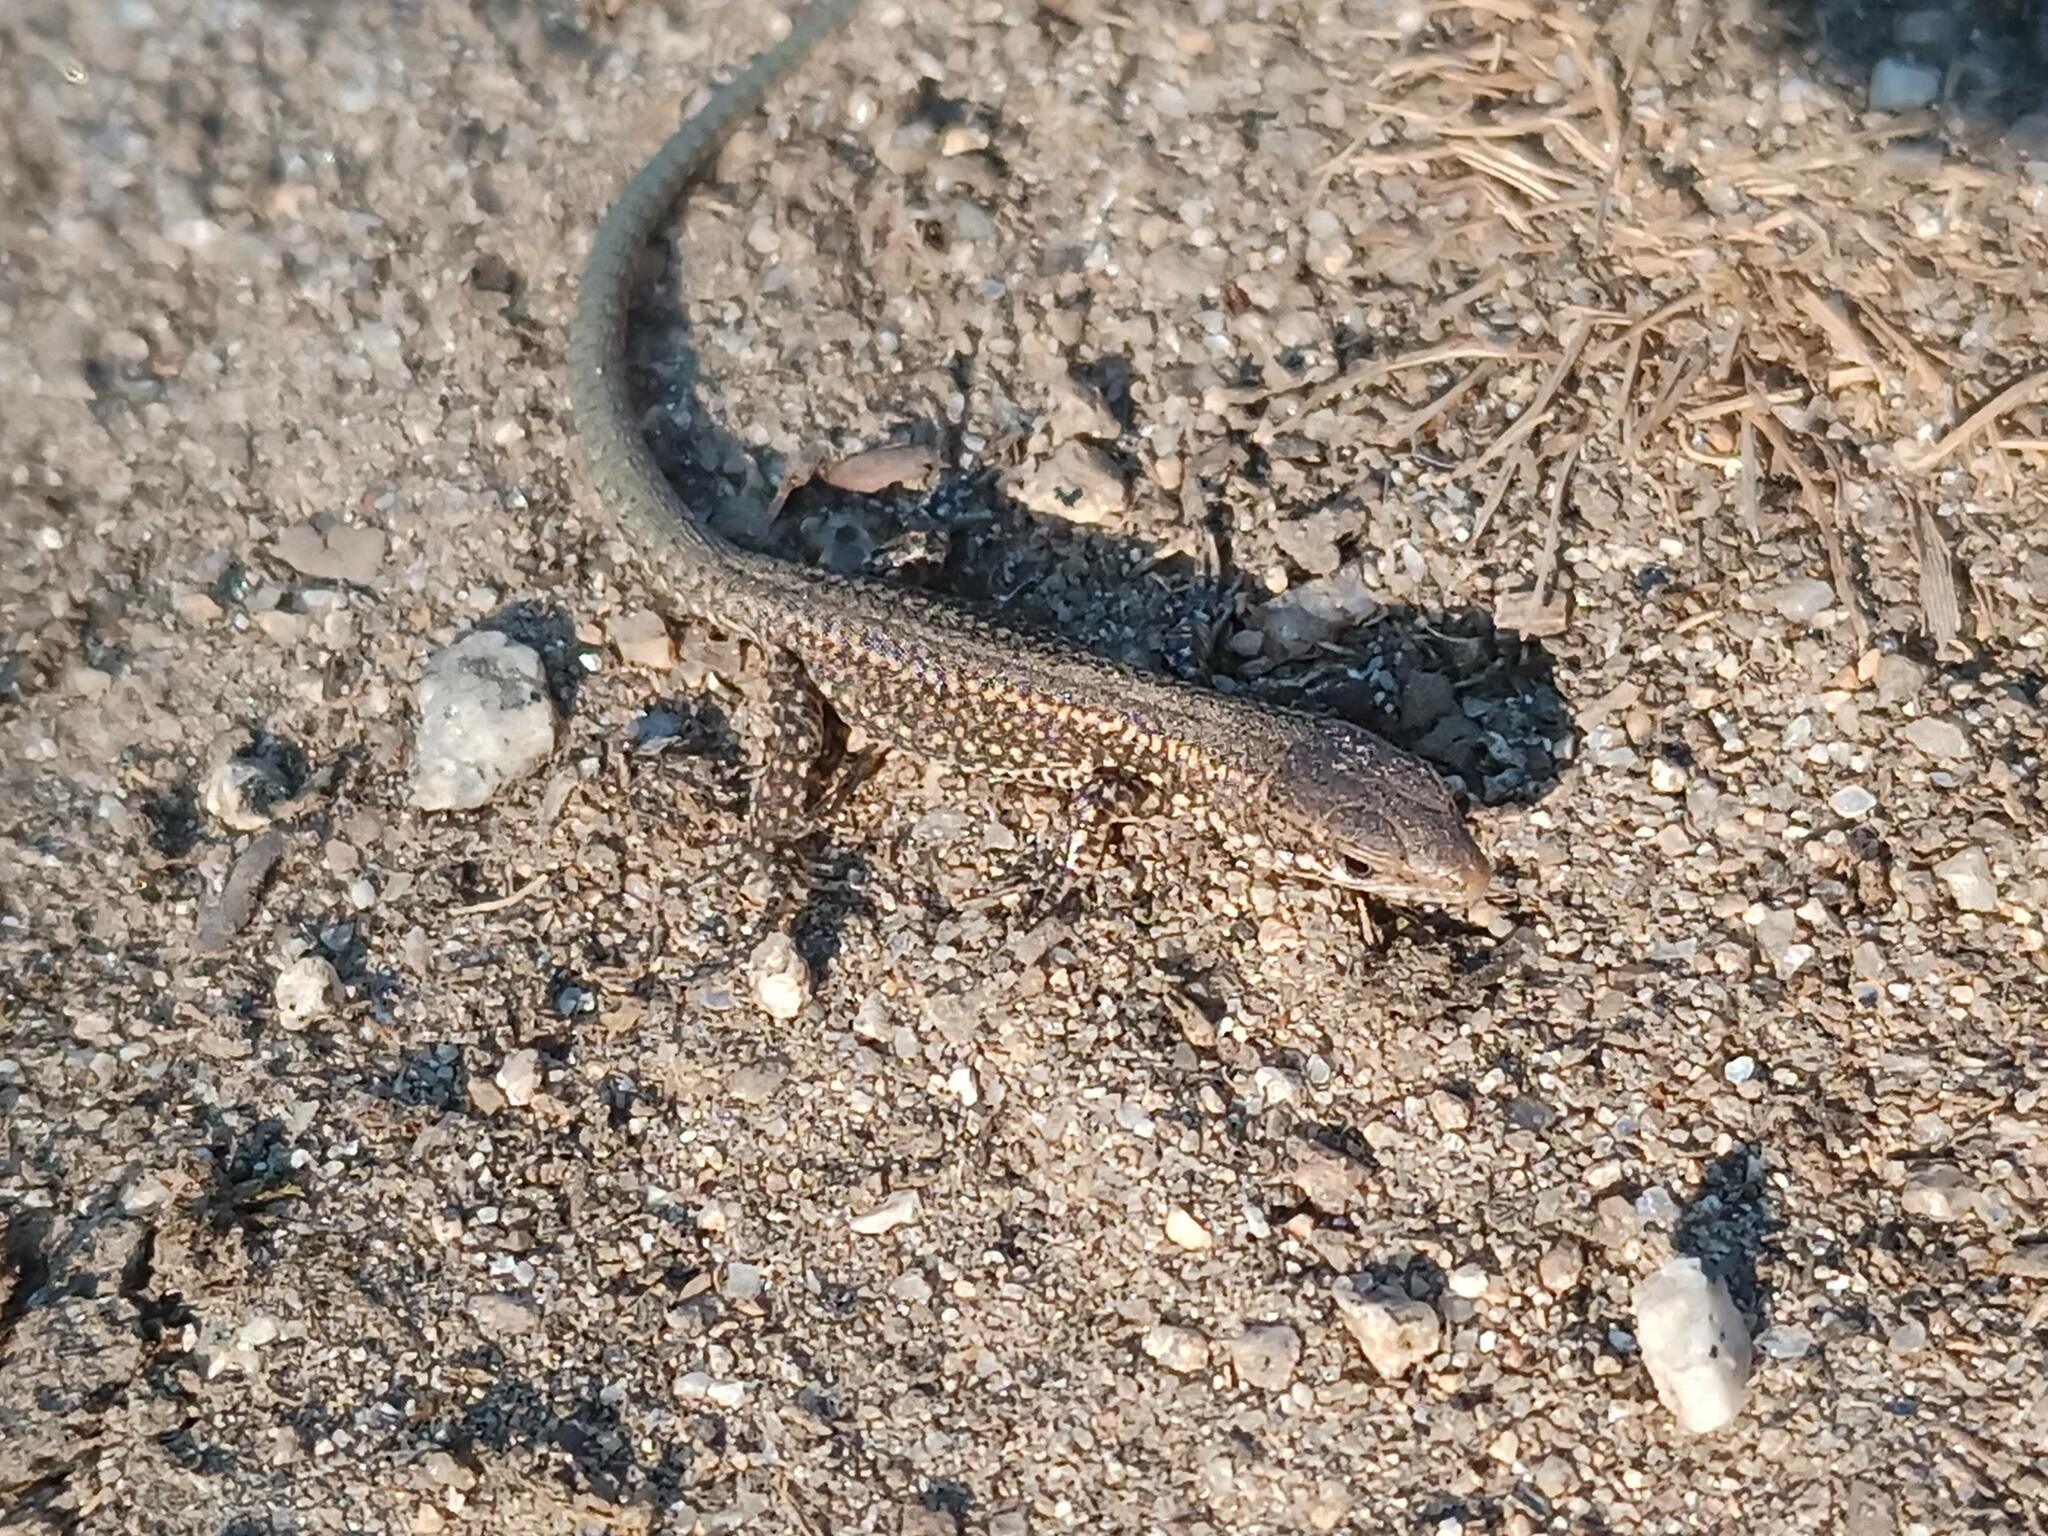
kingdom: Animalia
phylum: Chordata
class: Squamata
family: Lacertidae
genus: Podarcis
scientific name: Podarcis bocagei
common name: Bocage's wall lizard
